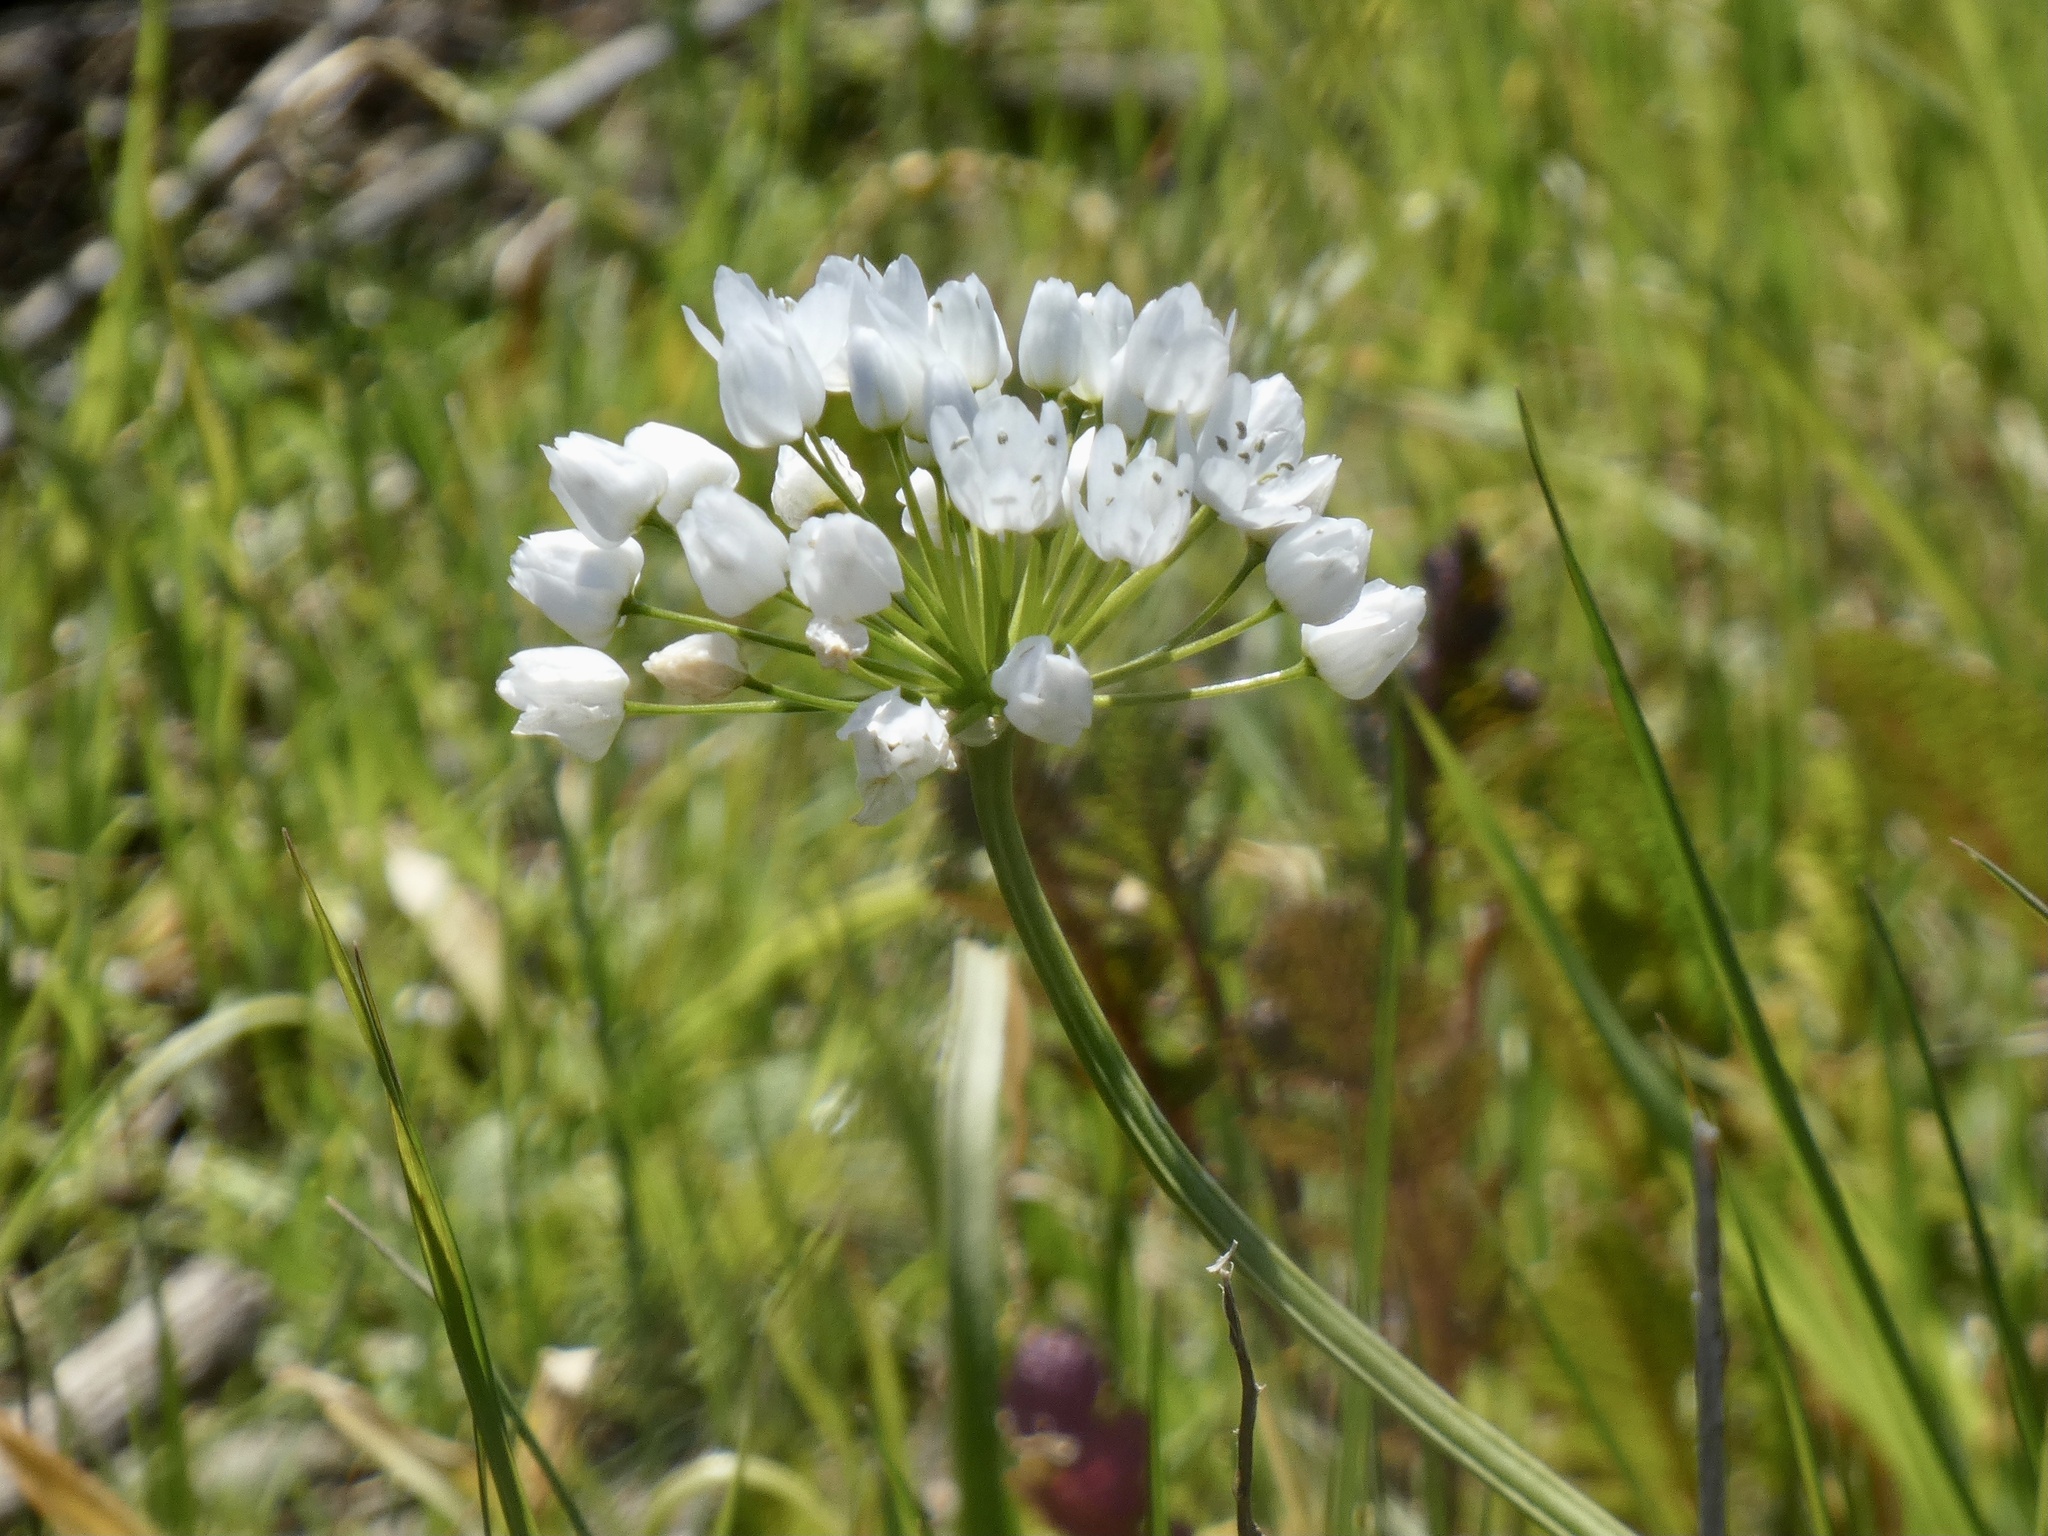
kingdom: Plantae
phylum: Tracheophyta
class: Liliopsida
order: Asparagales
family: Amaryllidaceae
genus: Allium
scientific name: Allium neapolitanum
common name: Neapolitan garlic
